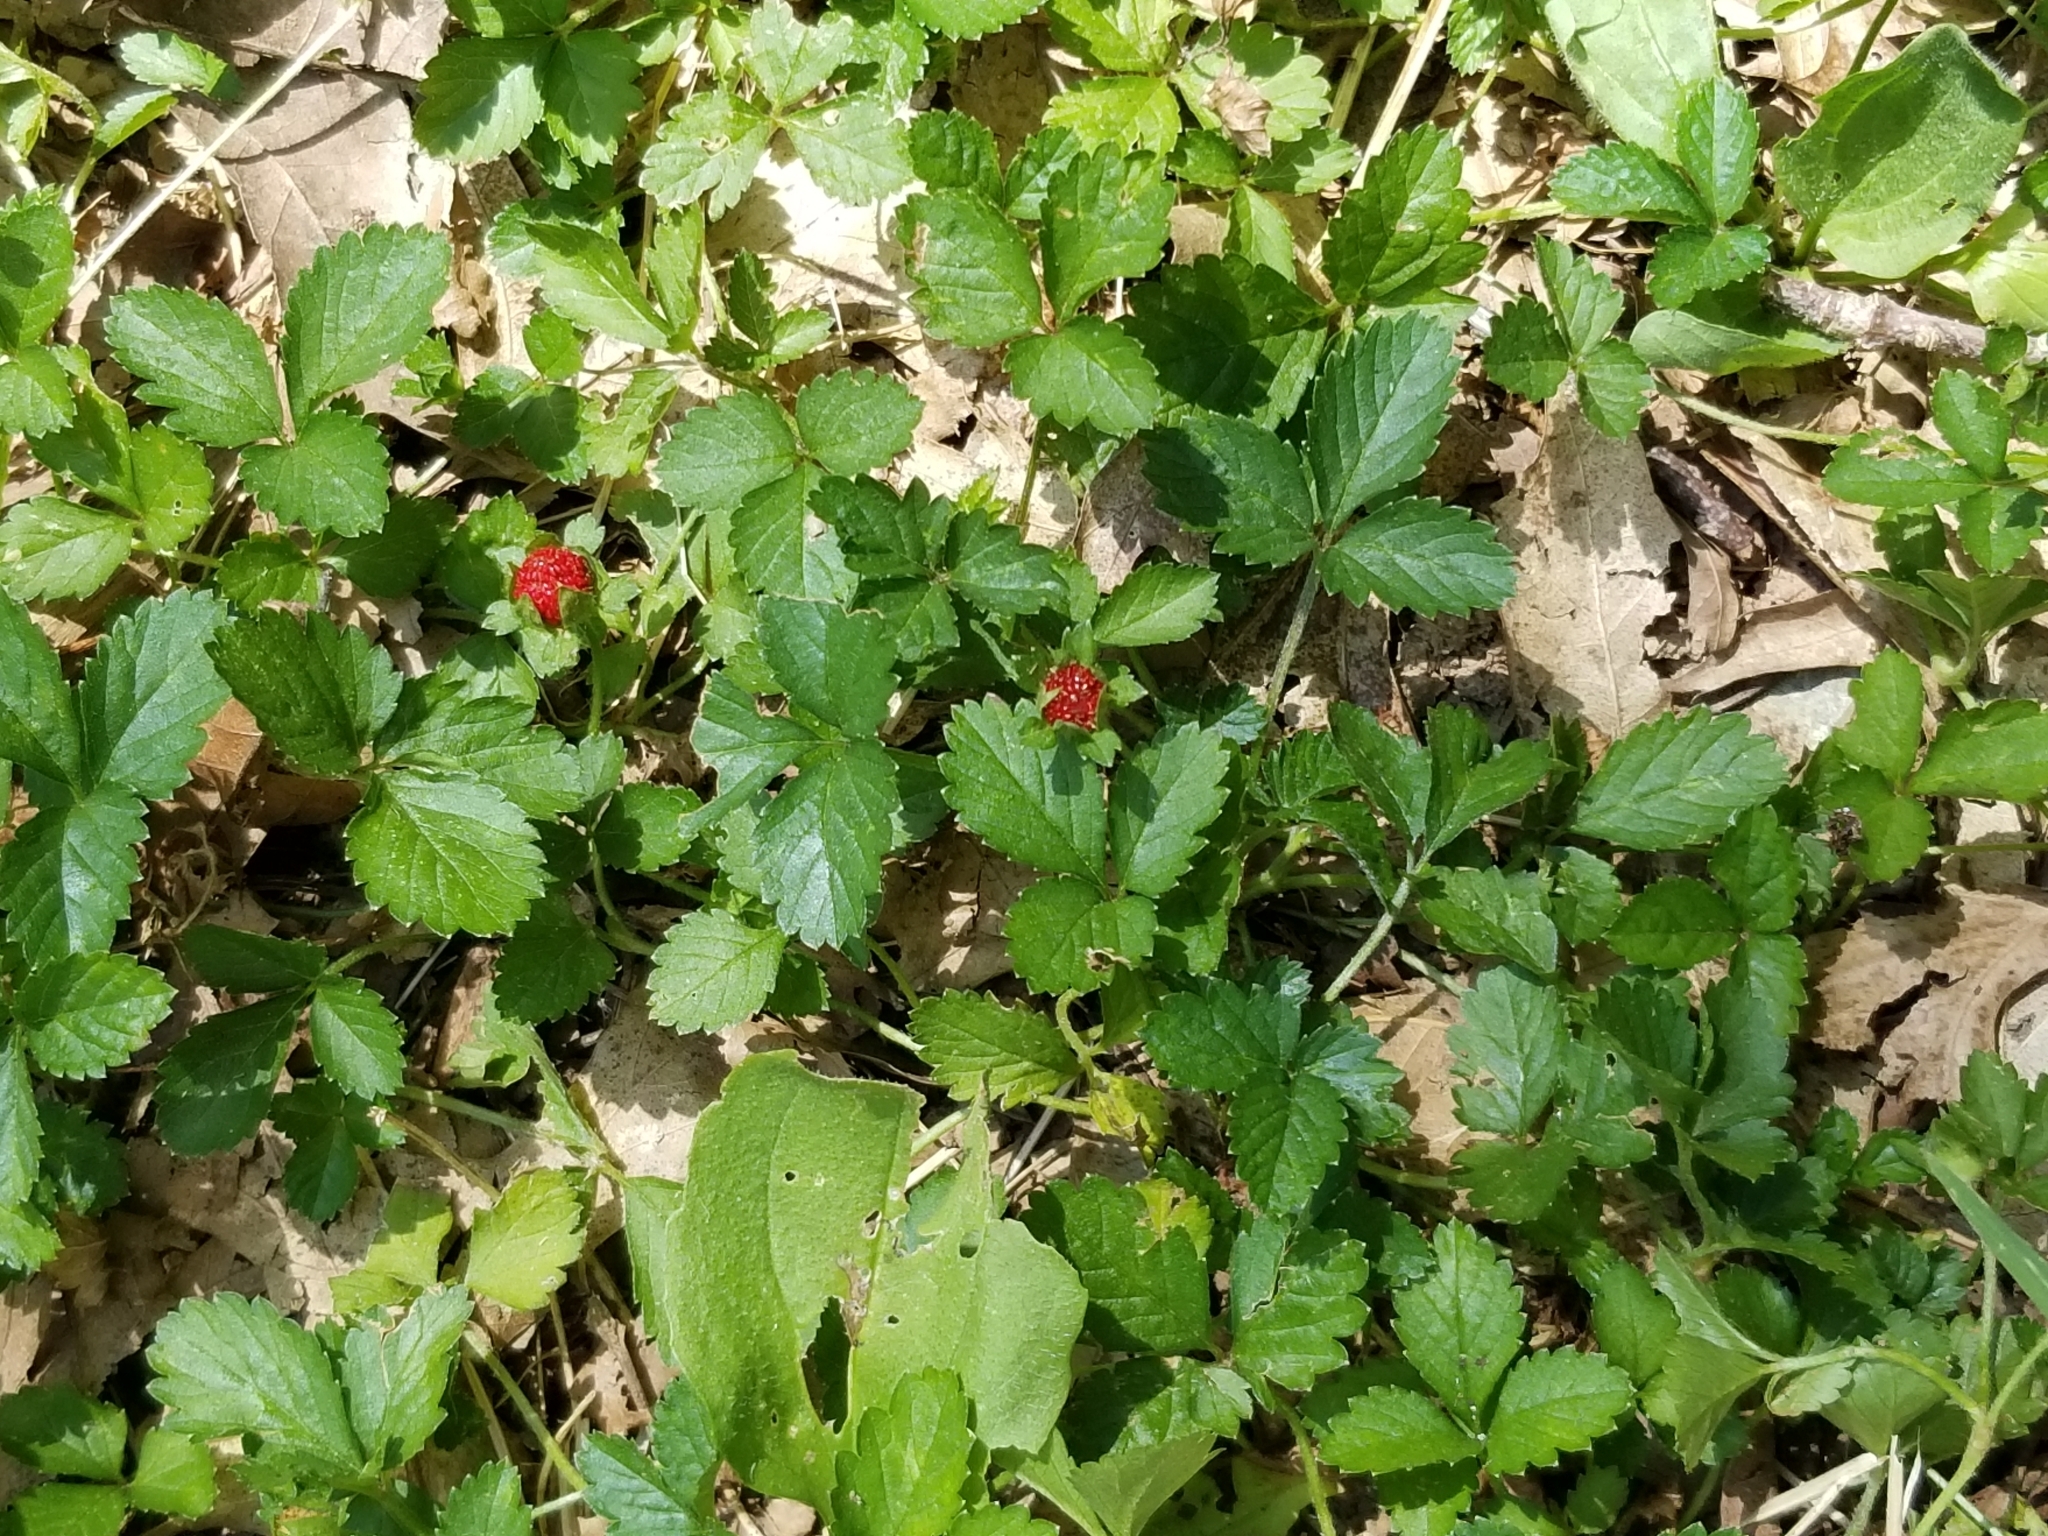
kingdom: Plantae
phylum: Tracheophyta
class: Magnoliopsida
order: Rosales
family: Rosaceae
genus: Potentilla
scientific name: Potentilla indica
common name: Yellow-flowered strawberry
